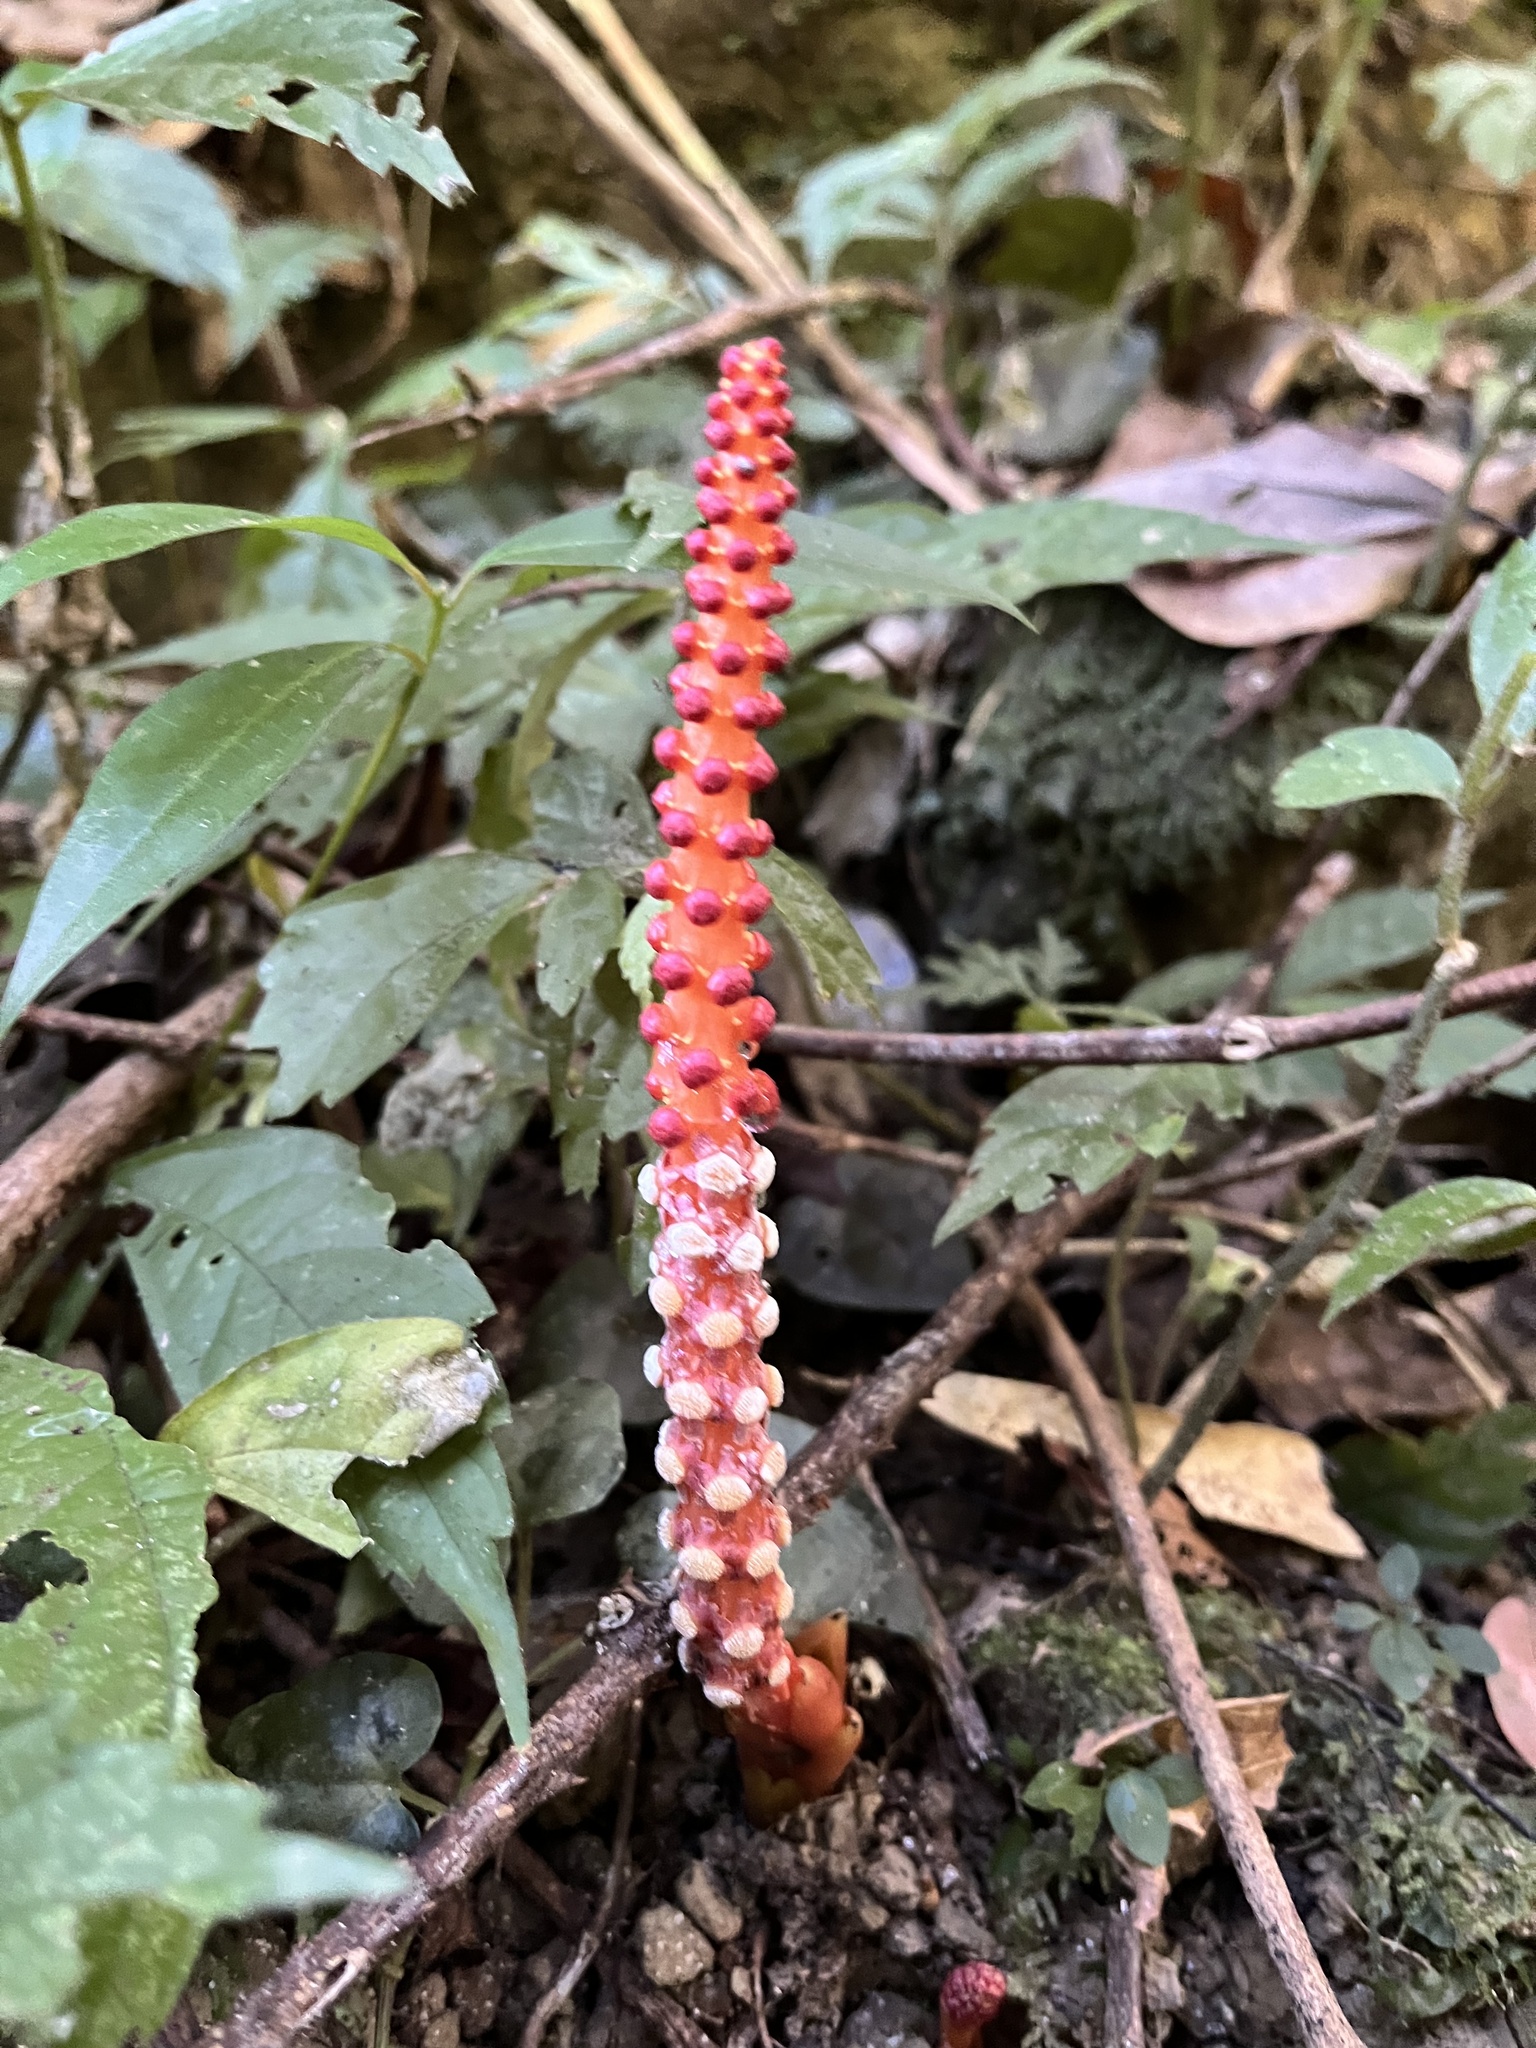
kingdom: Plantae
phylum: Tracheophyta
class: Magnoliopsida
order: Santalales
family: Balanophoraceae
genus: Balanophora
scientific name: Balanophora laxiflora
